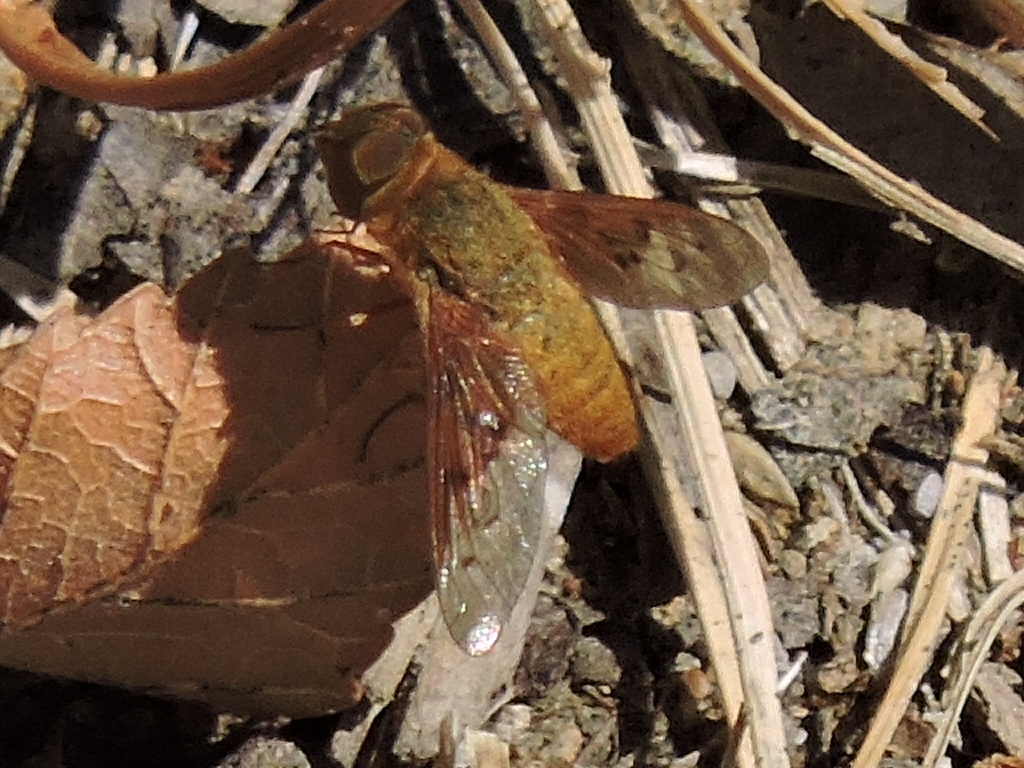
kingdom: Animalia
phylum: Arthropoda
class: Insecta
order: Diptera
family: Bombyliidae
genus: Chrysanthrax
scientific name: Chrysanthrax cypris
